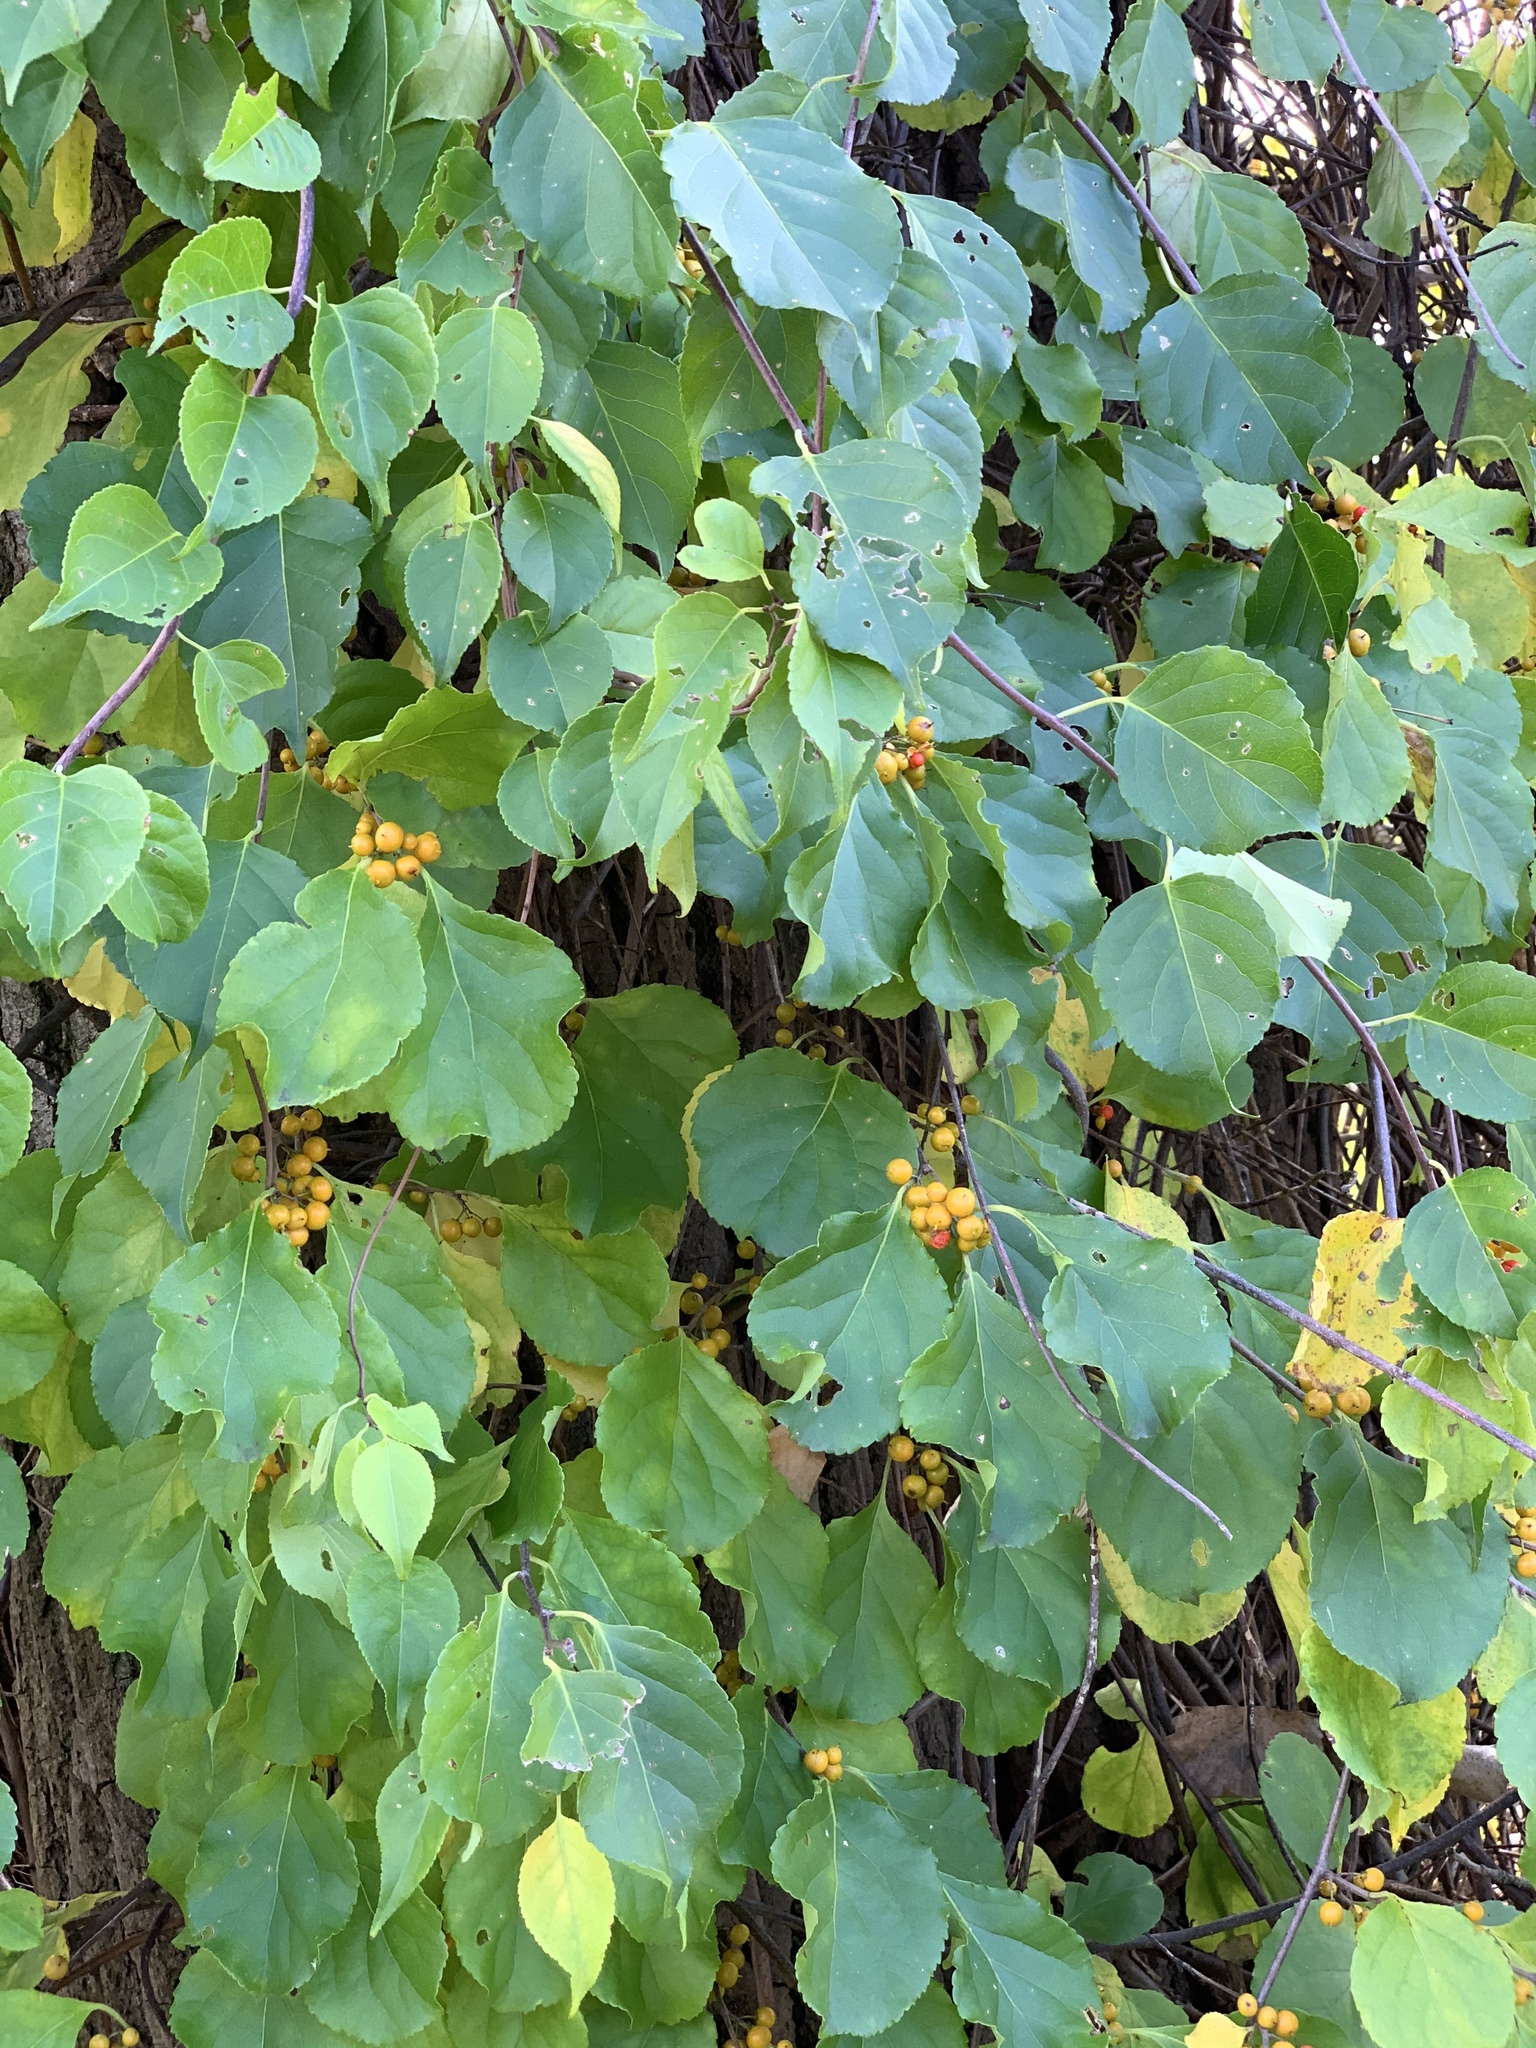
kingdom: Plantae
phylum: Tracheophyta
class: Magnoliopsida
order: Celastrales
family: Celastraceae
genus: Celastrus
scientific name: Celastrus orbiculatus
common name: Oriental bittersweet
